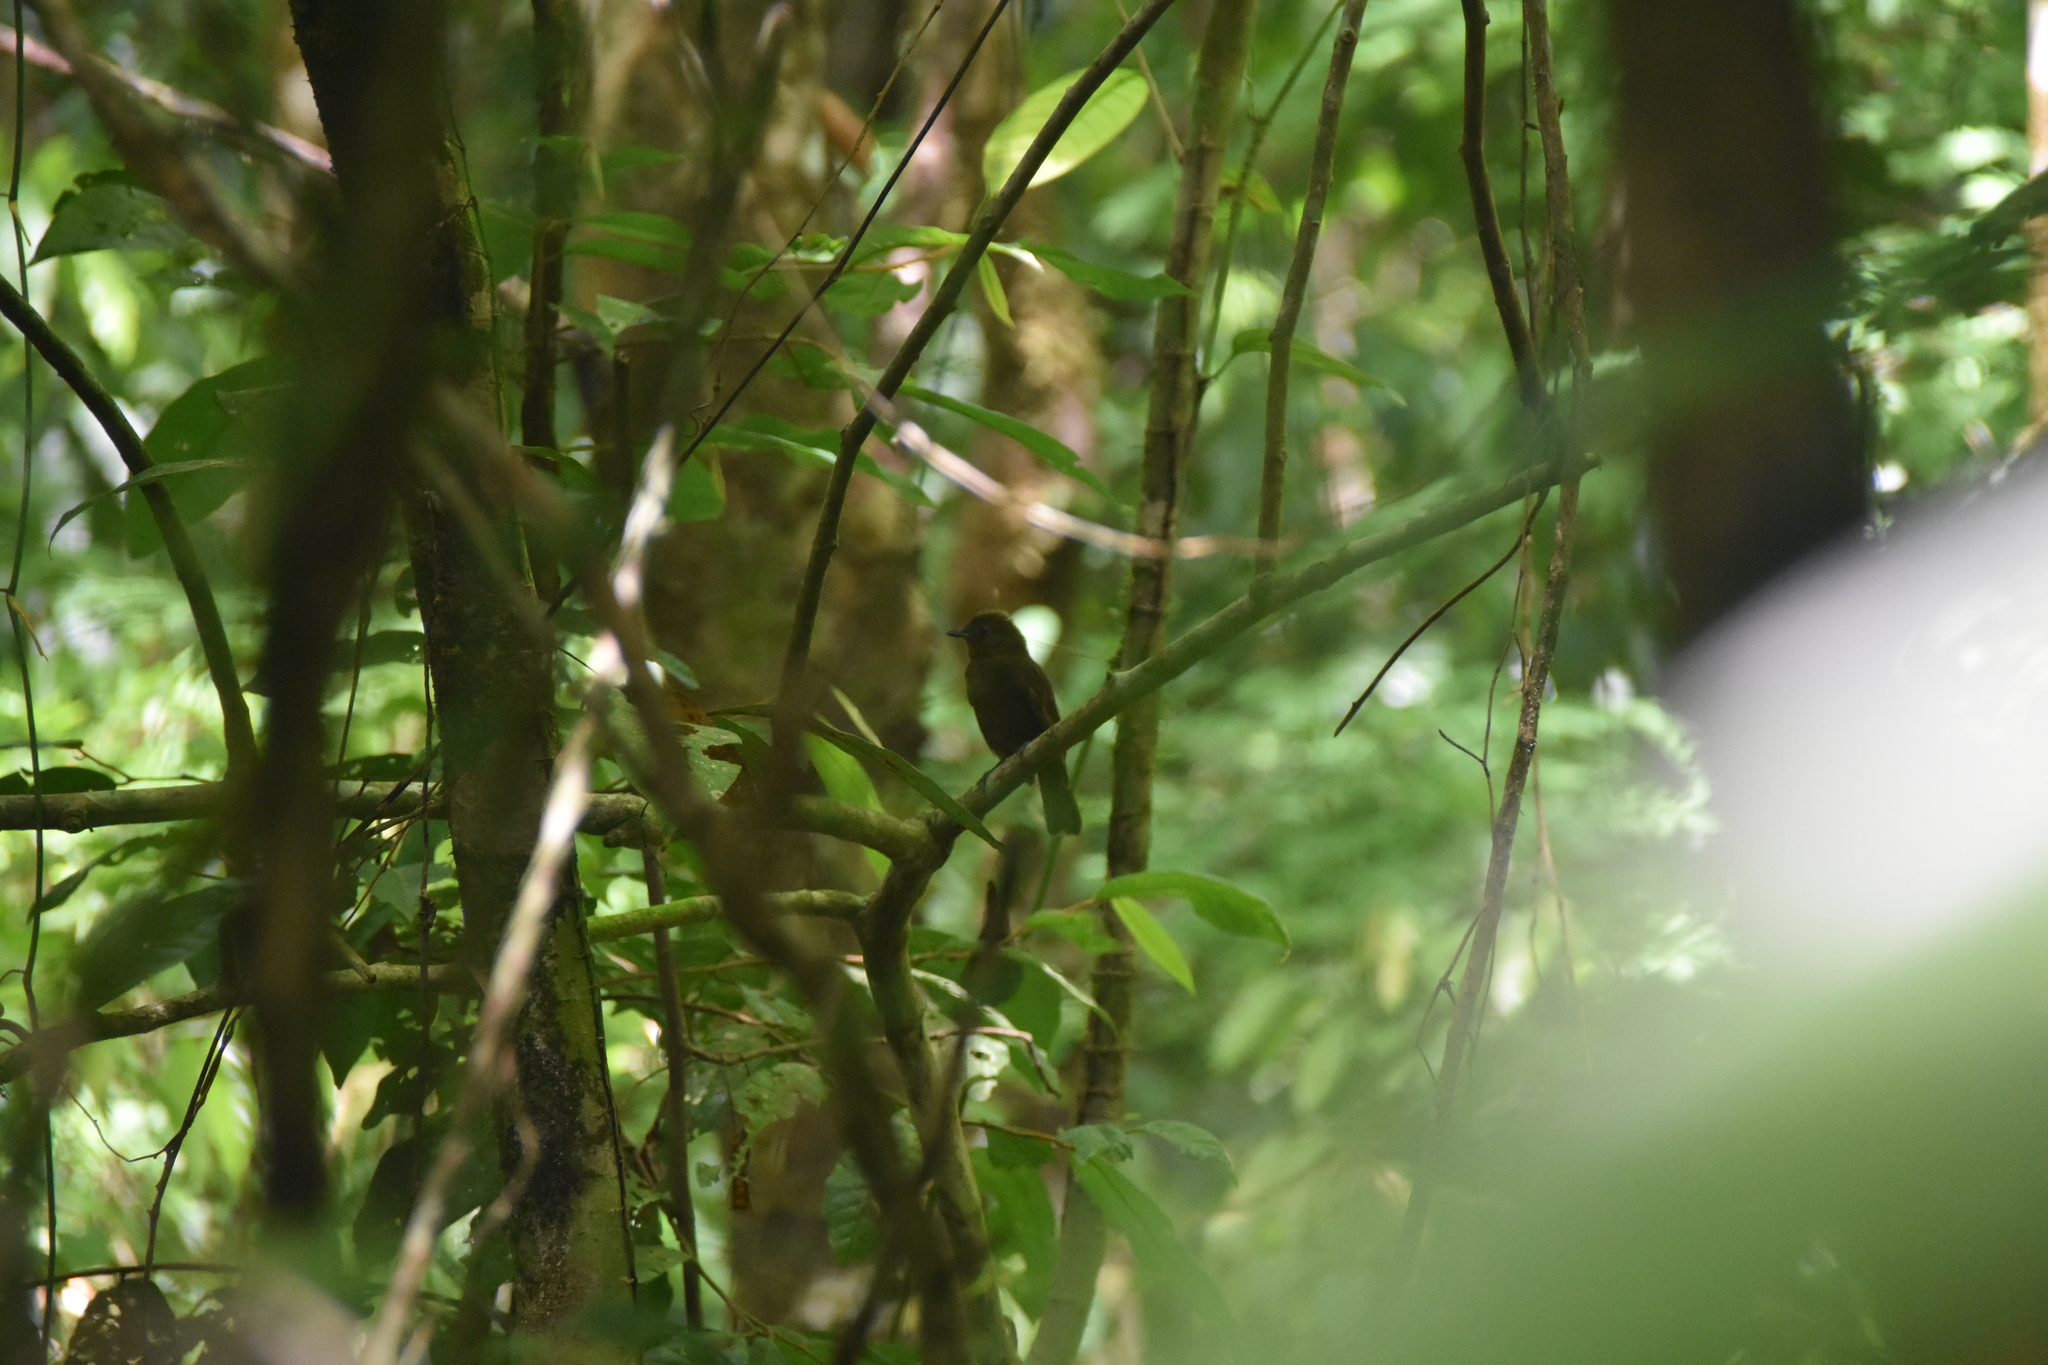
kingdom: Animalia
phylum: Chordata
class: Aves
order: Passeriformes
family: Cotingidae
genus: Schiffornis
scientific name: Schiffornis turdina
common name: Brown-winged schiffornis
